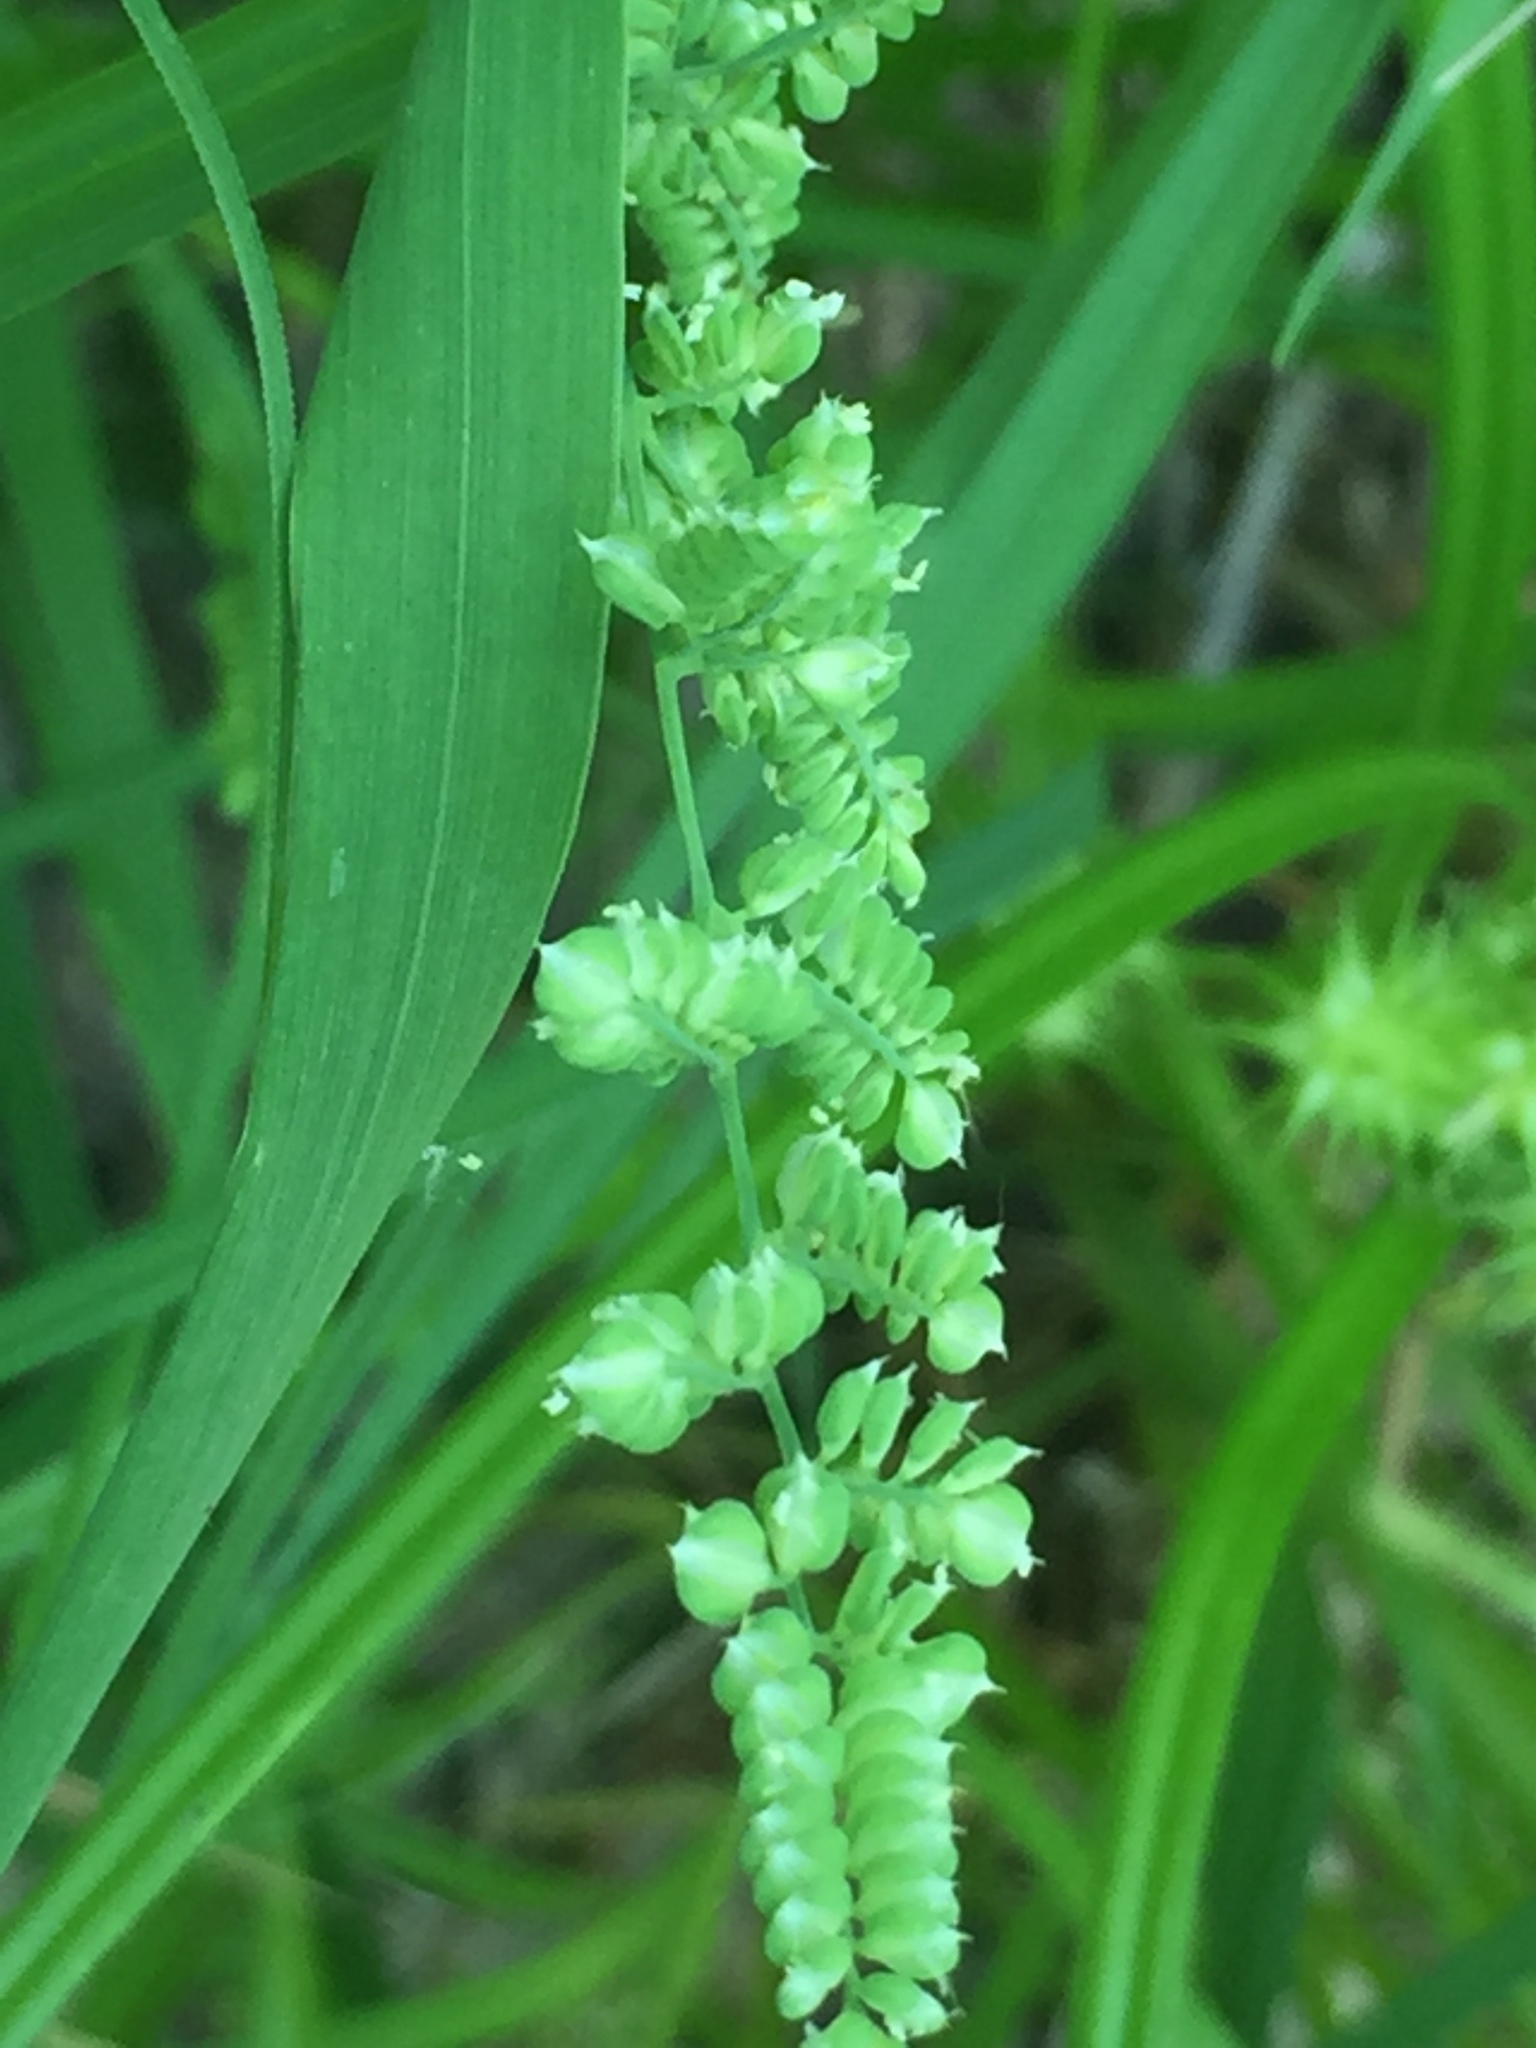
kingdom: Plantae
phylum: Tracheophyta
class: Liliopsida
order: Poales
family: Poaceae
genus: Beckmannia
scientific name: Beckmannia syzigachne
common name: American slough-grass
